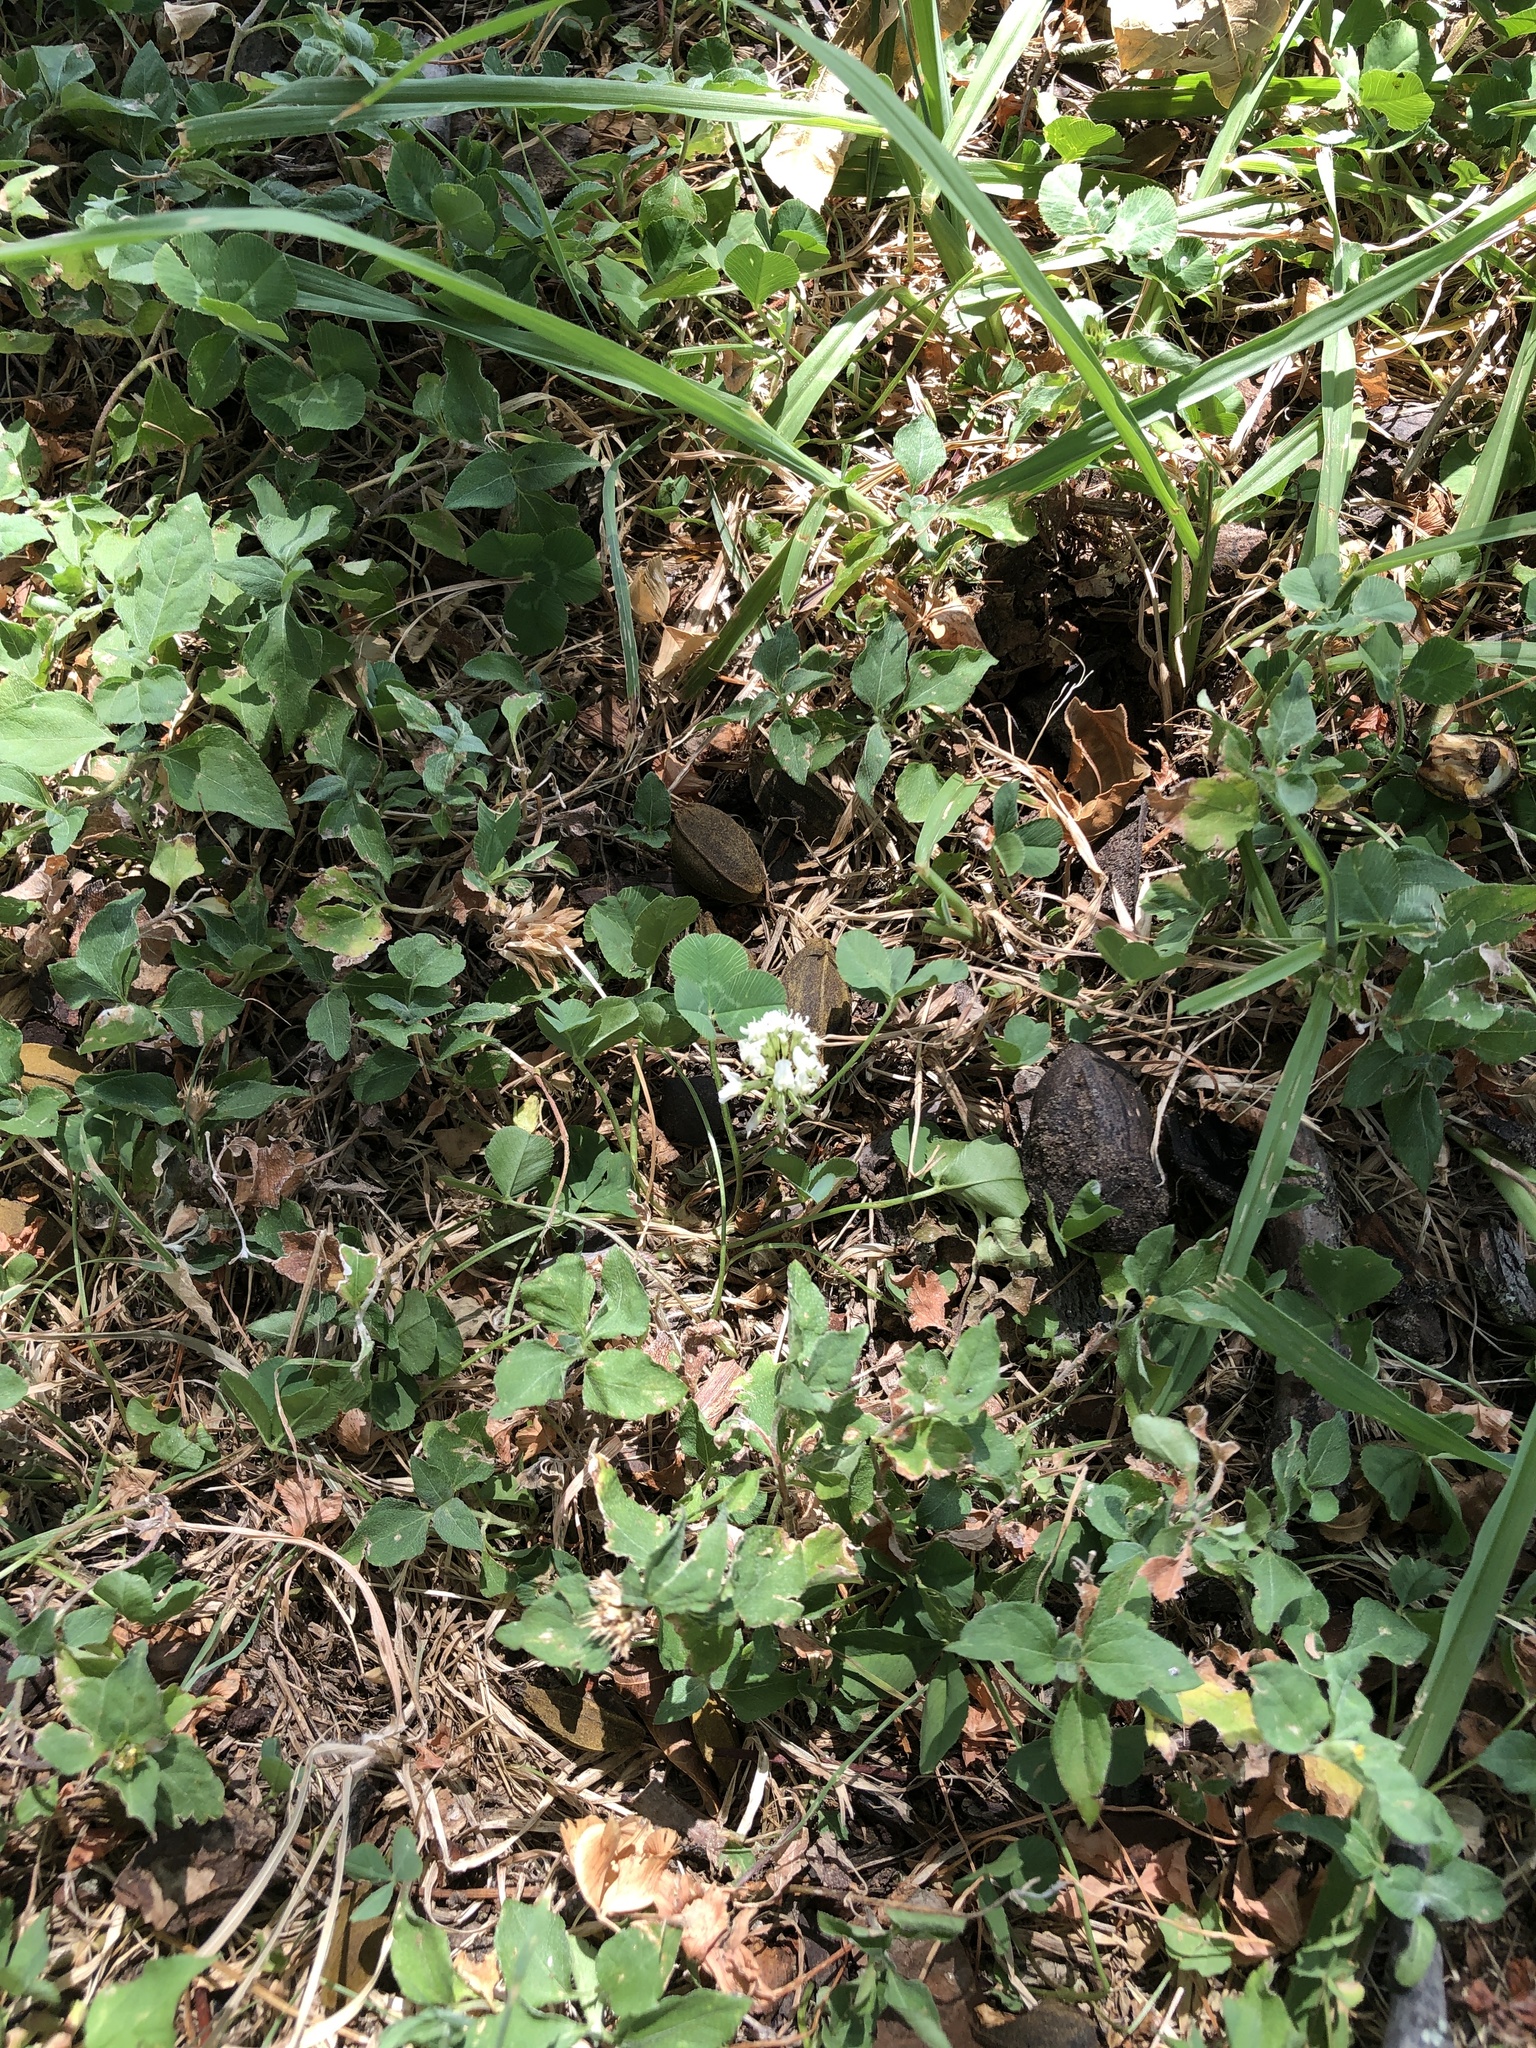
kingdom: Plantae
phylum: Tracheophyta
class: Magnoliopsida
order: Fabales
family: Fabaceae
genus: Trifolium
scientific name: Trifolium repens
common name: White clover
